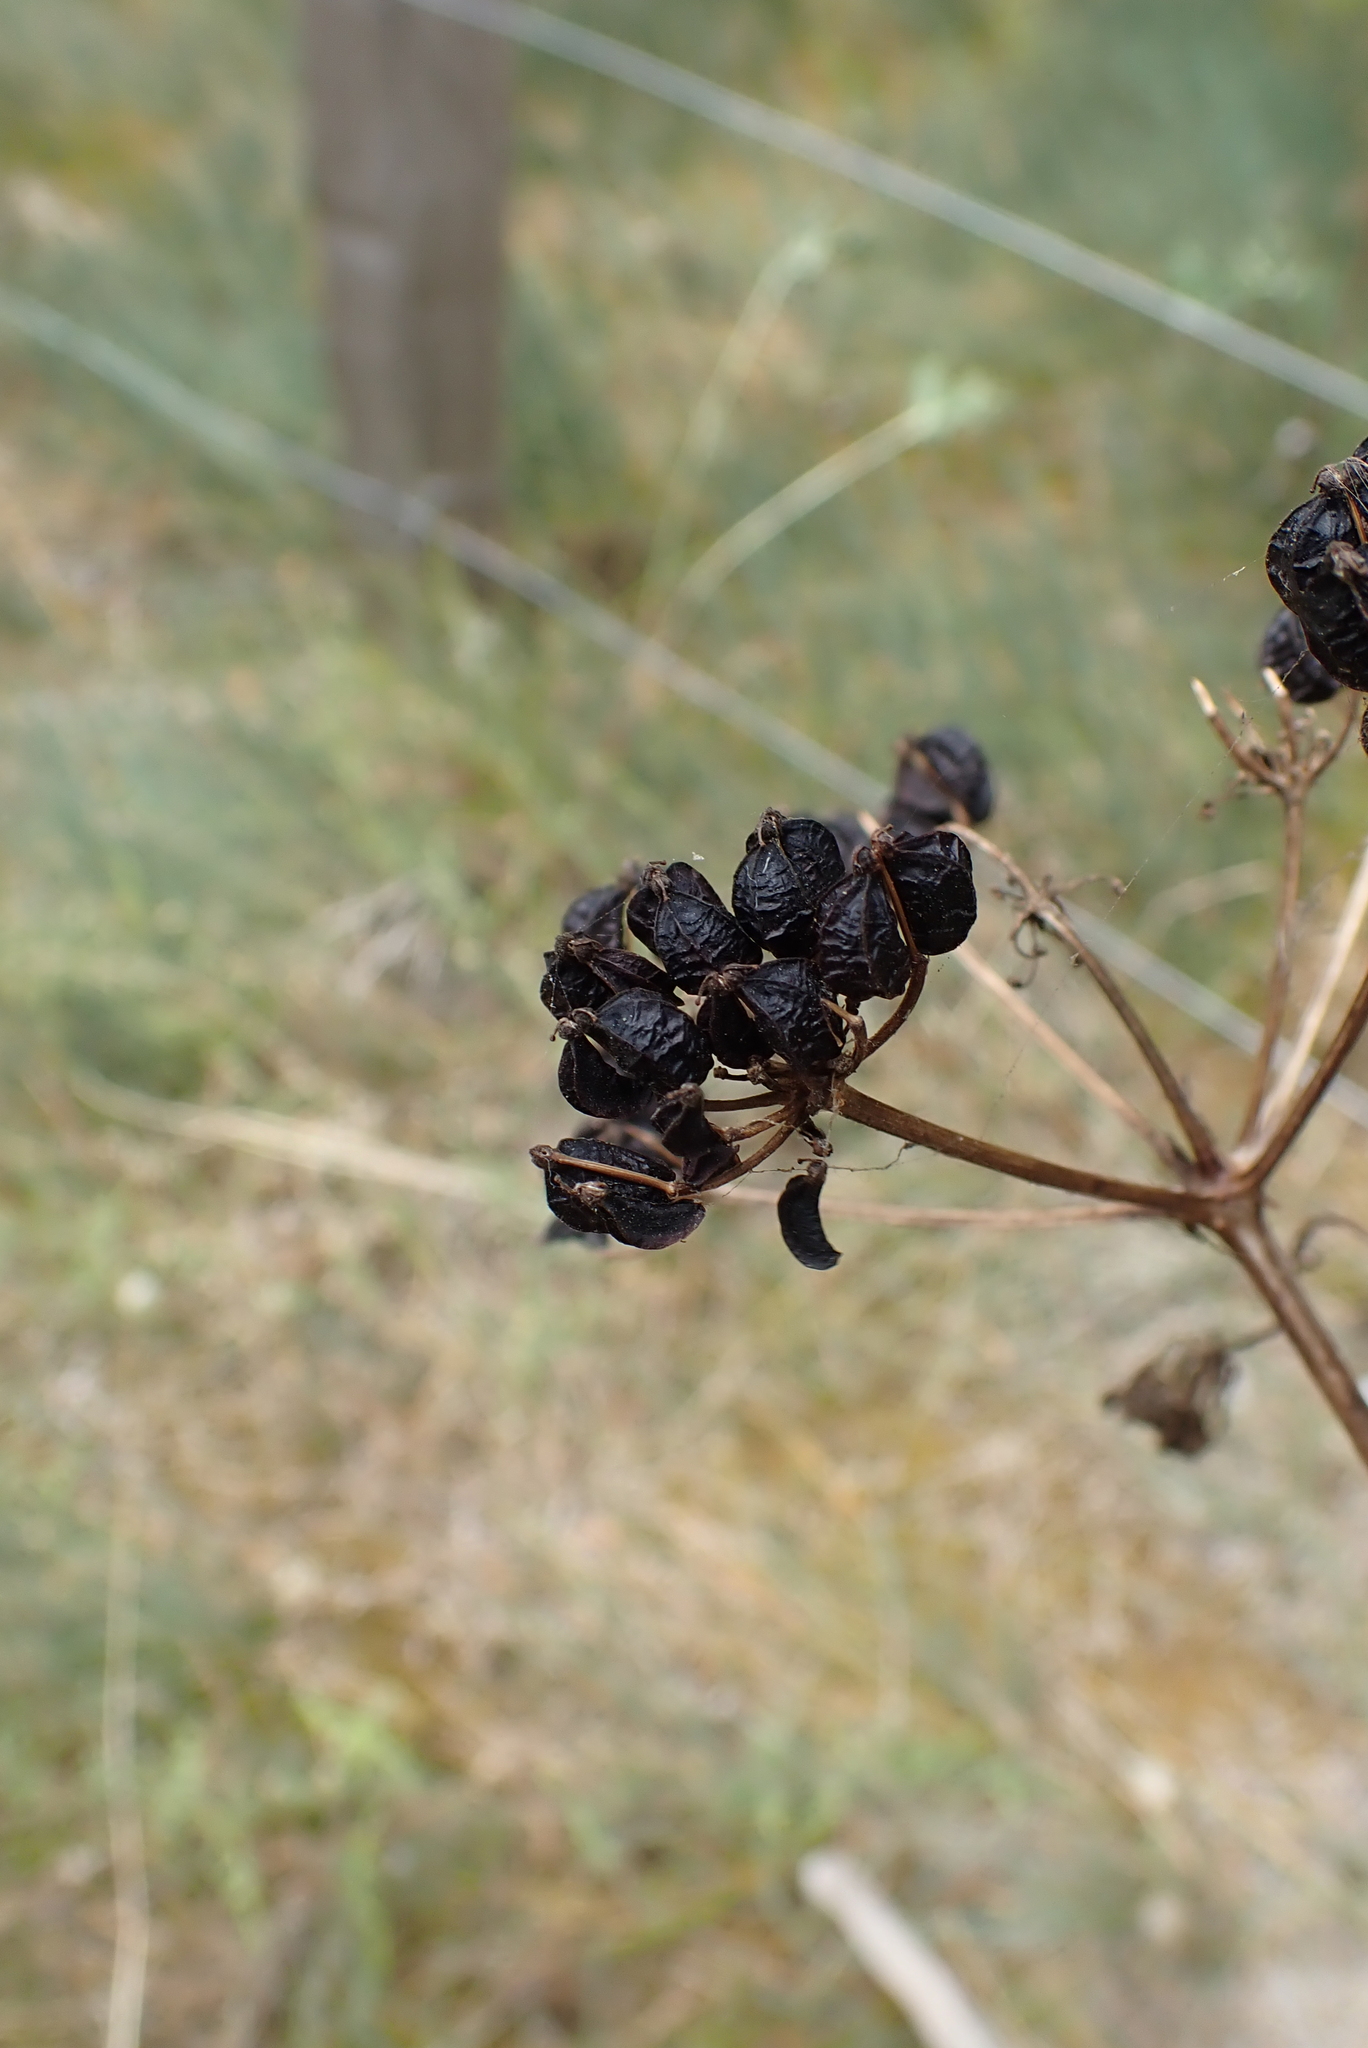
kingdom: Plantae
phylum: Tracheophyta
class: Magnoliopsida
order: Apiales
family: Apiaceae
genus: Smyrnium
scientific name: Smyrnium olusatrum
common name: Alexanders
